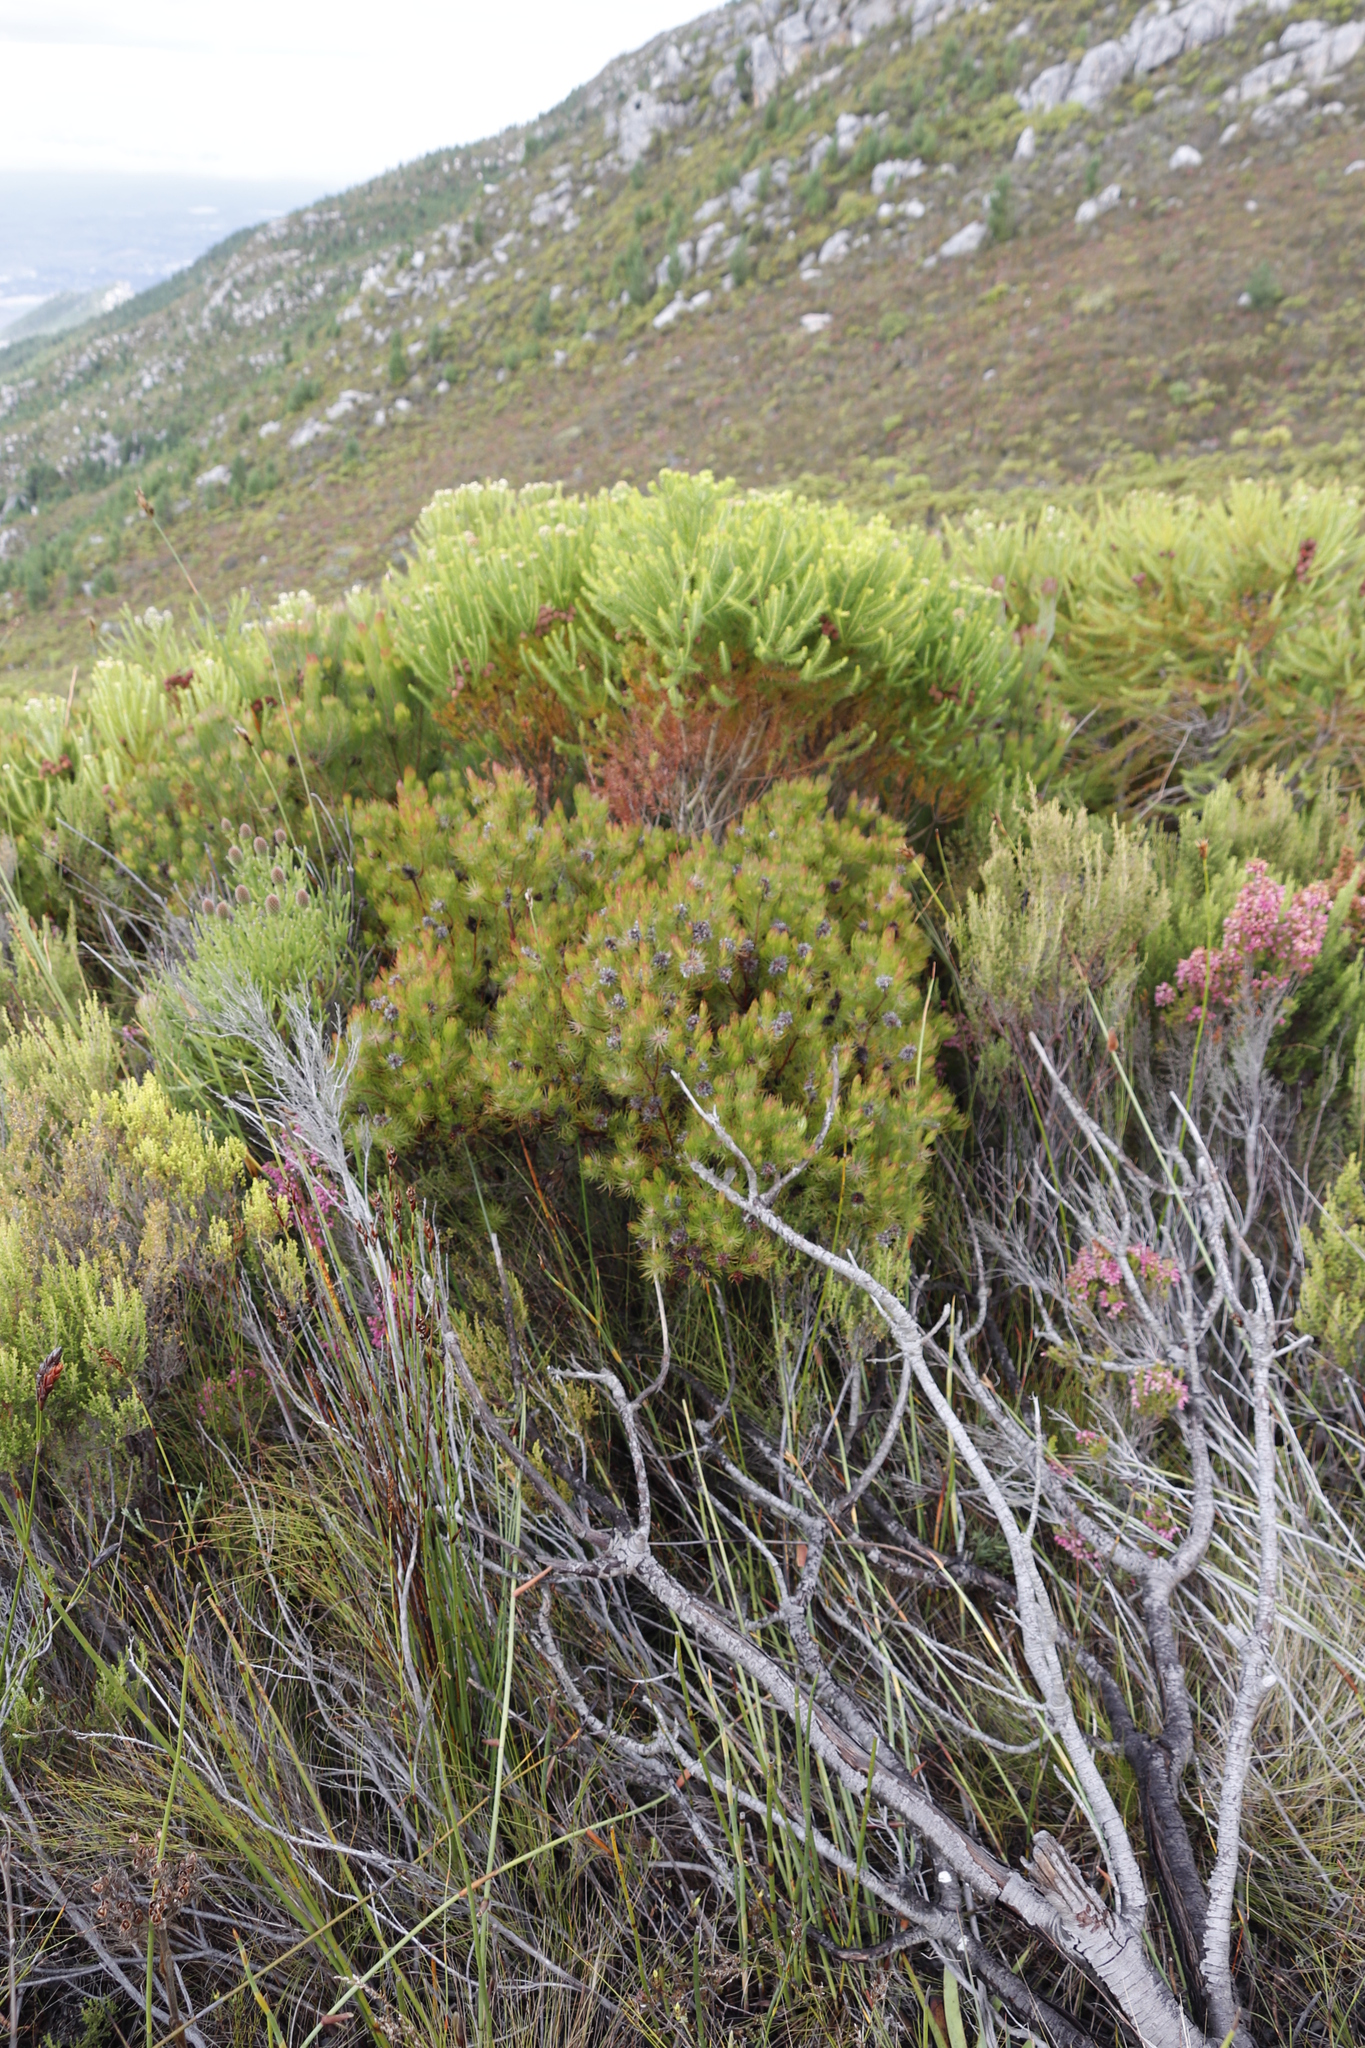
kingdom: Plantae
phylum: Tracheophyta
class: Magnoliopsida
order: Proteales
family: Proteaceae
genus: Spatalla
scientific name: Spatalla setacea
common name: Needle-leaf spoon
